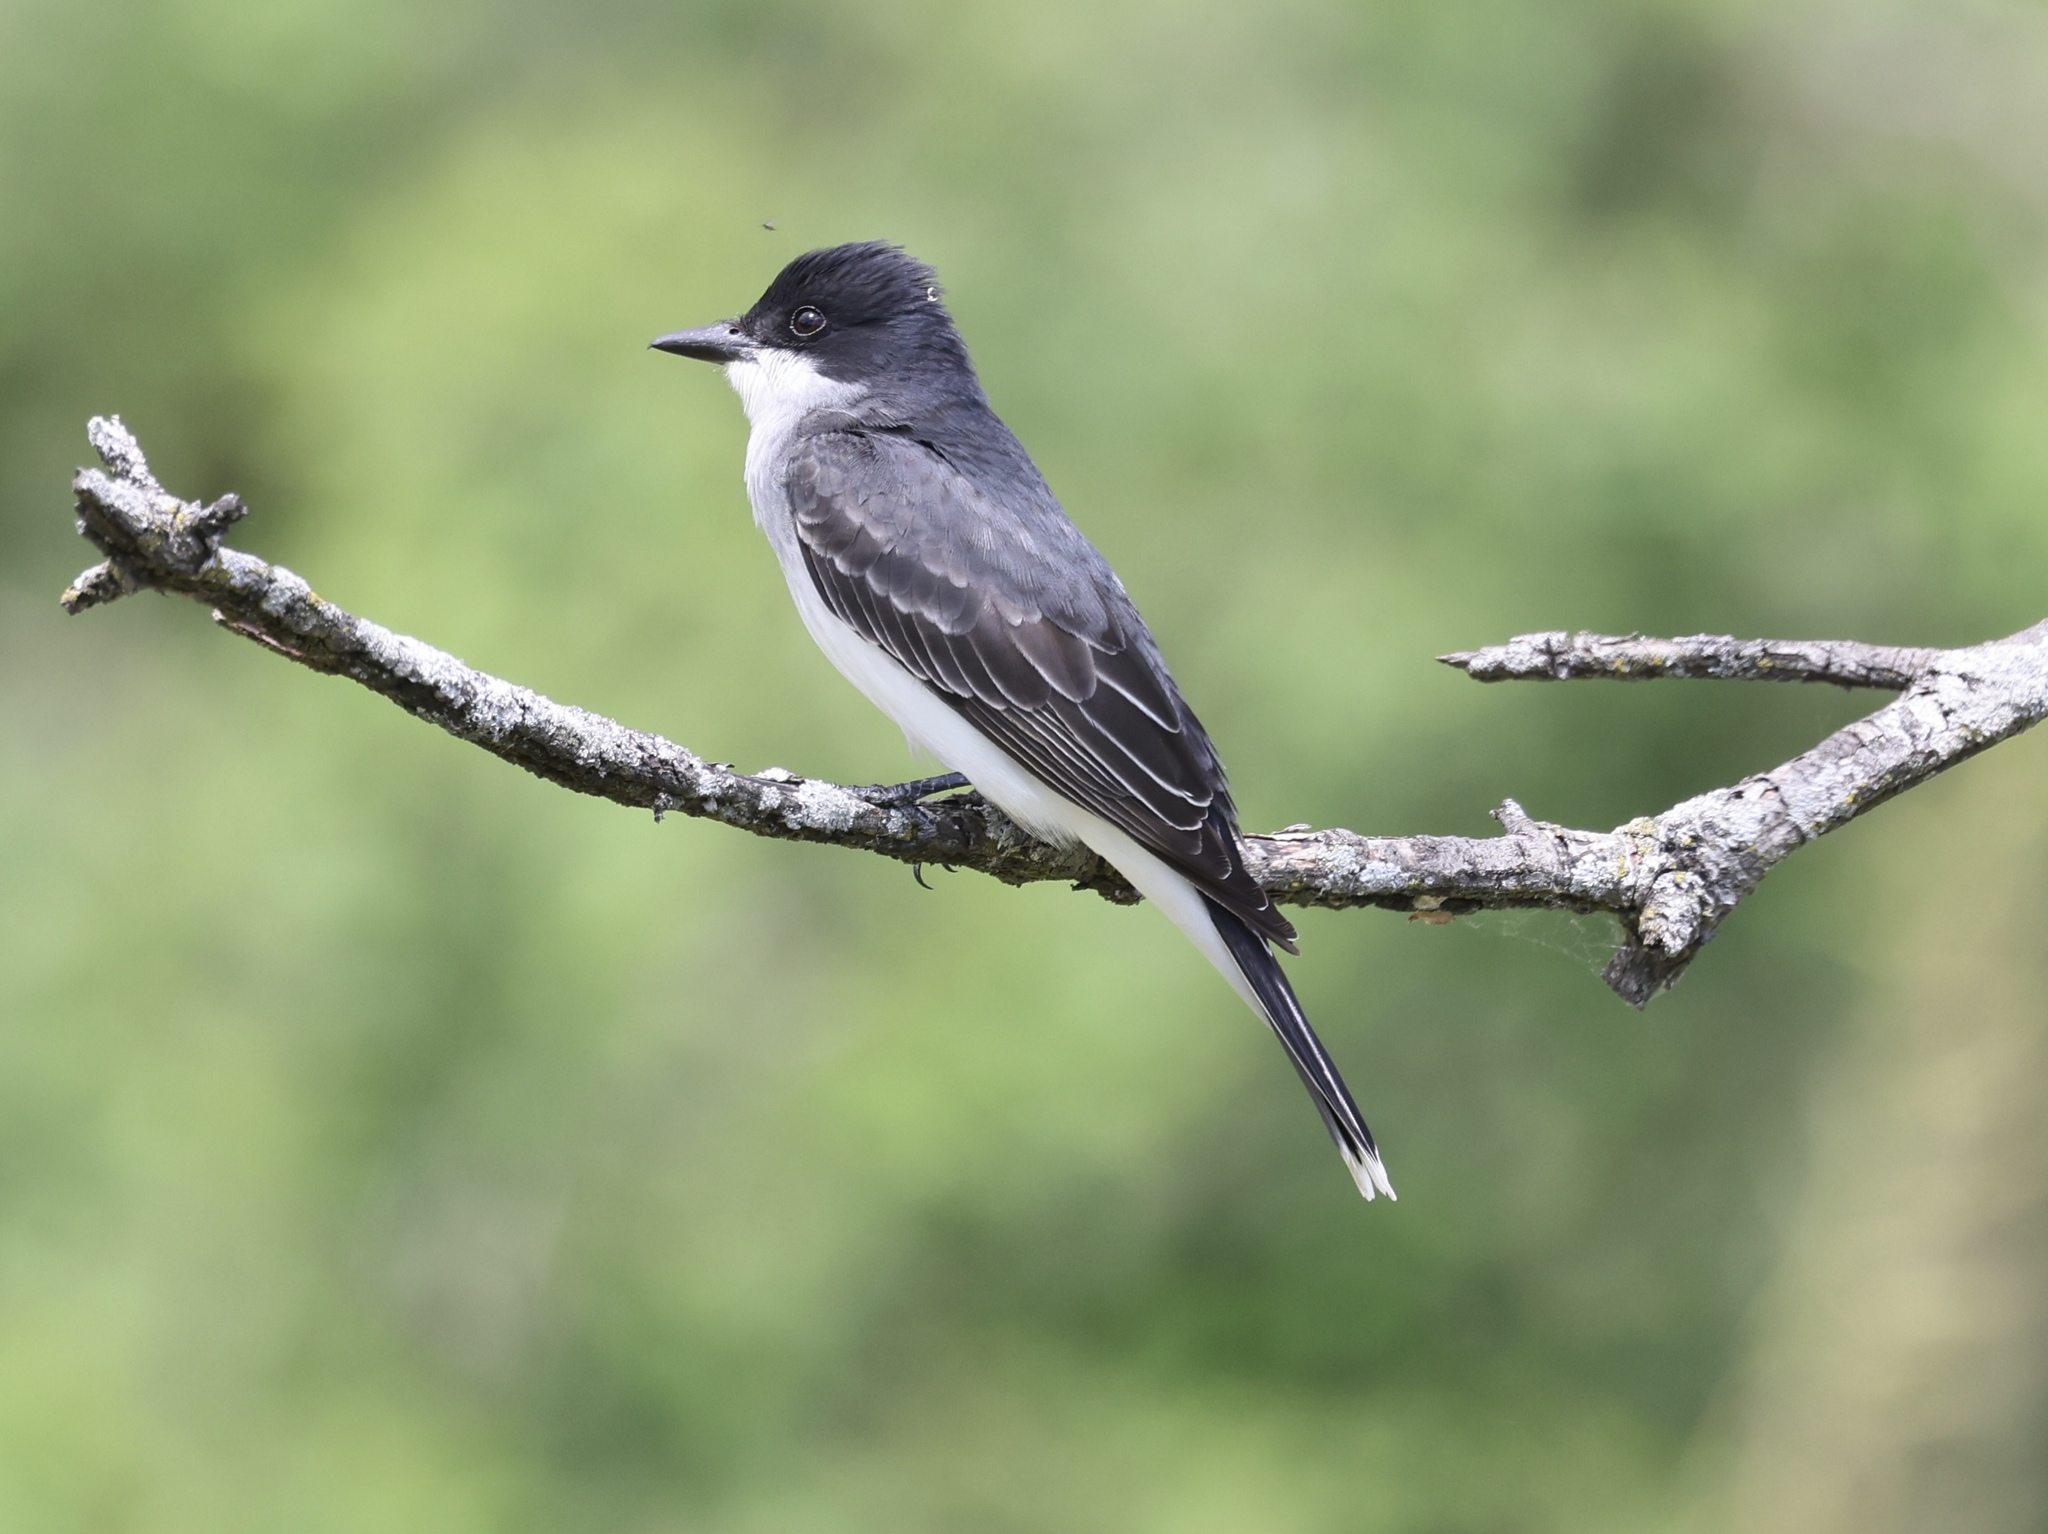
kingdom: Animalia
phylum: Chordata
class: Aves
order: Passeriformes
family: Tyrannidae
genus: Tyrannus
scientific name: Tyrannus tyrannus
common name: Eastern kingbird
